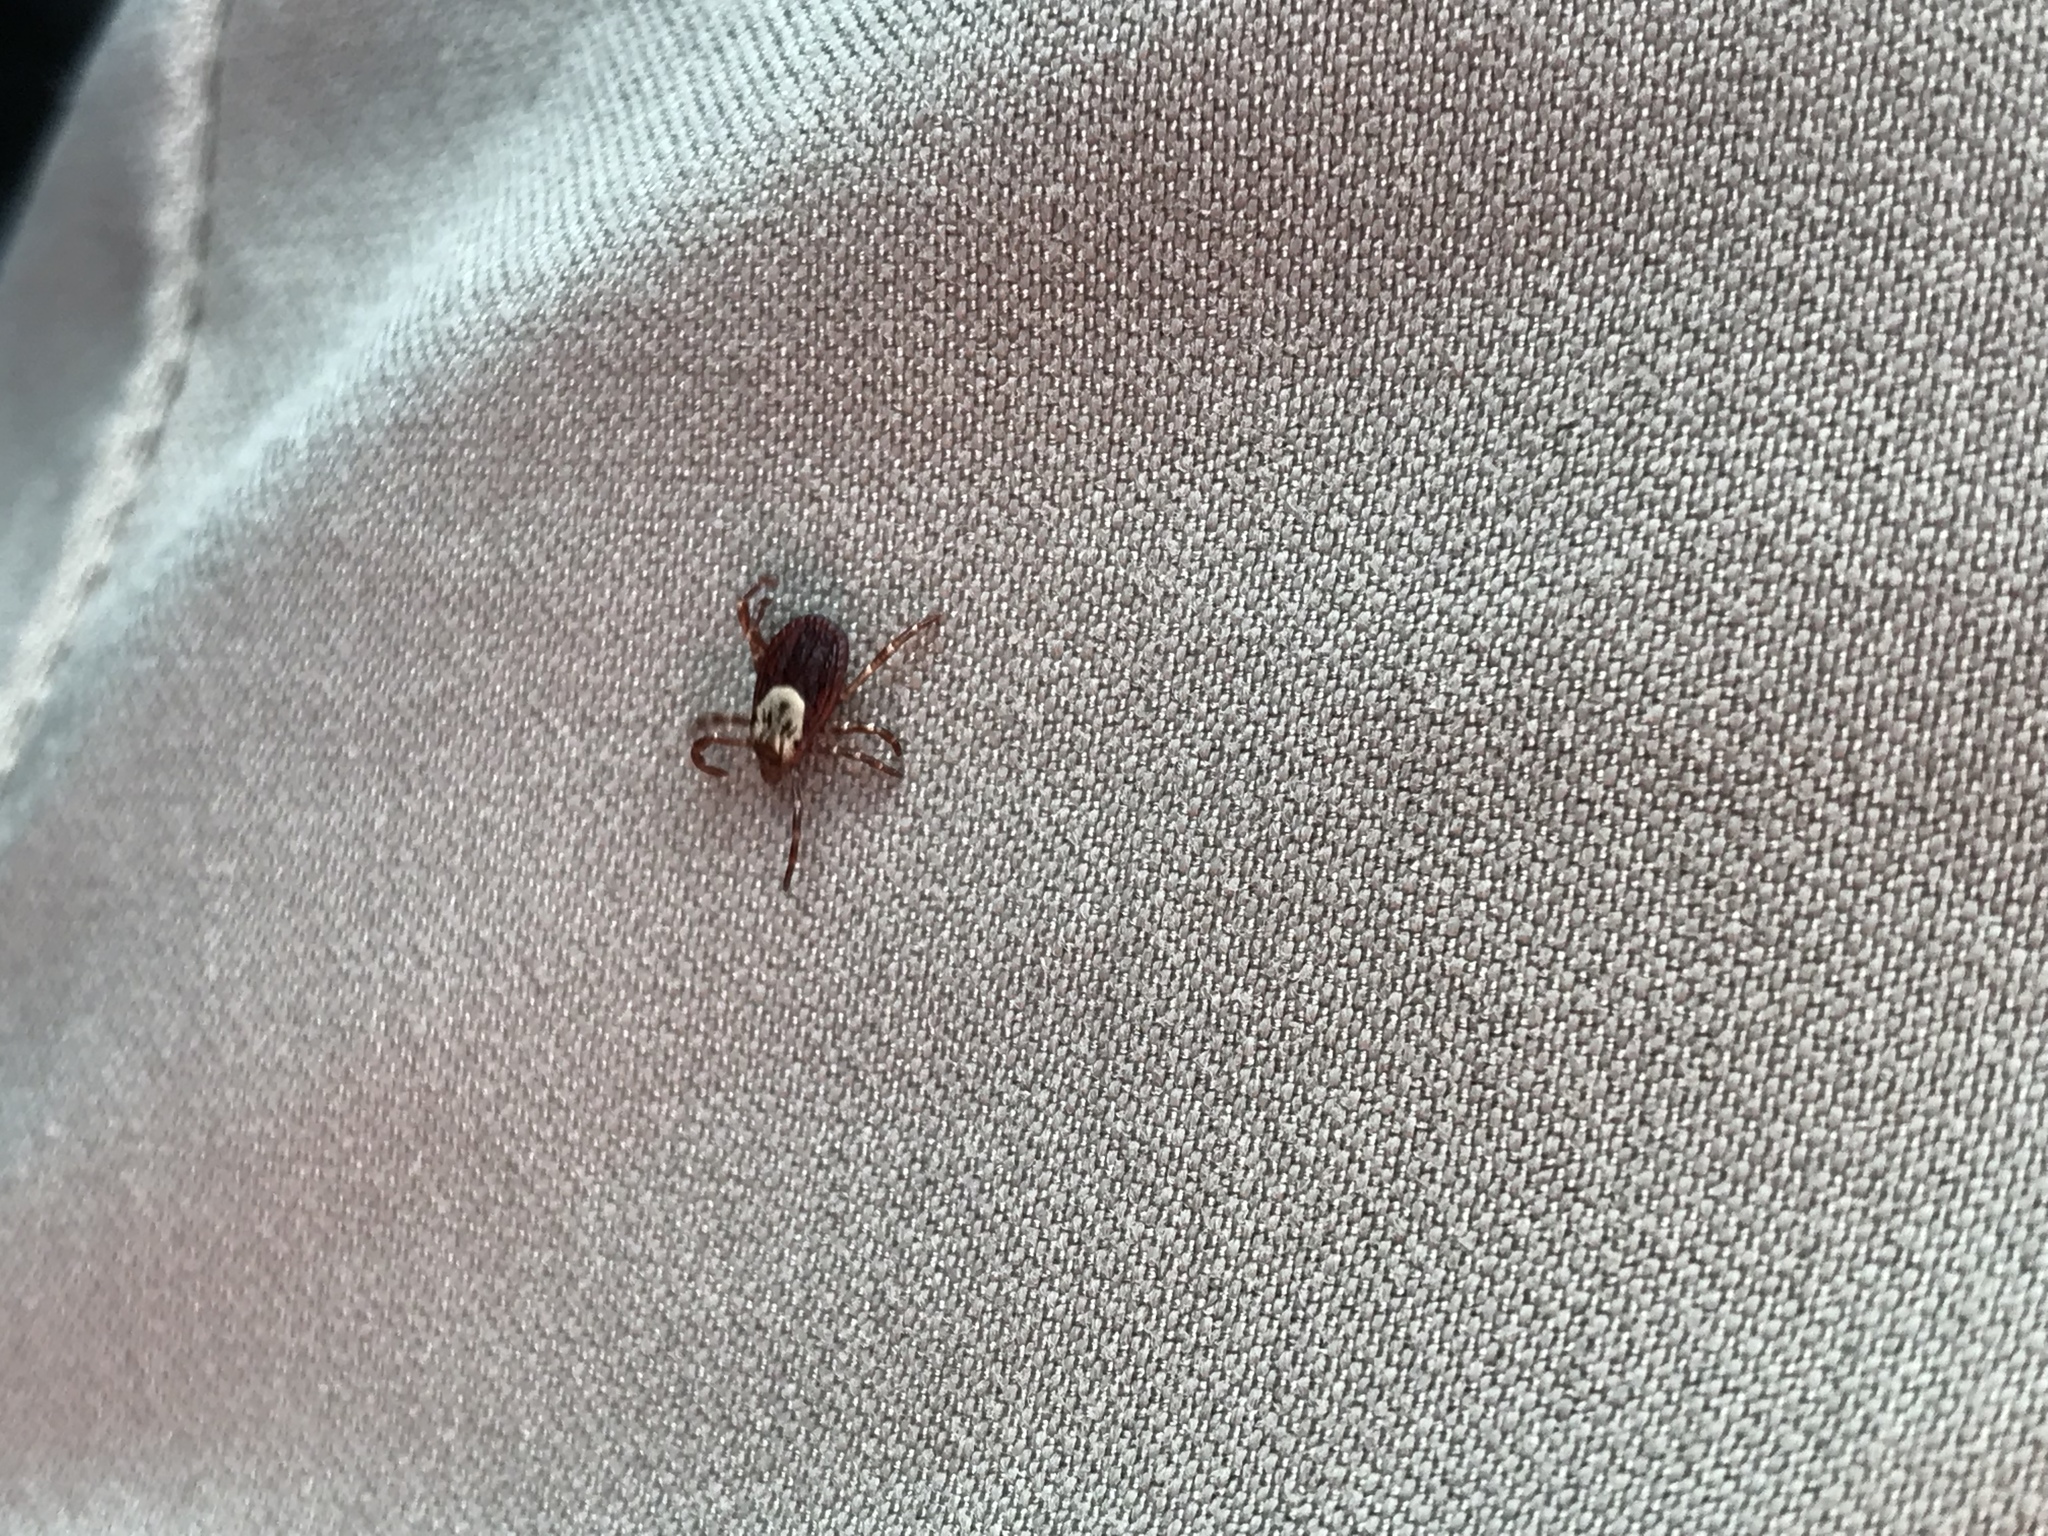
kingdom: Animalia
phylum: Arthropoda
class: Arachnida
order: Ixodida
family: Ixodidae
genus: Dermacentor
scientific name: Dermacentor variabilis
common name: American dog tick
